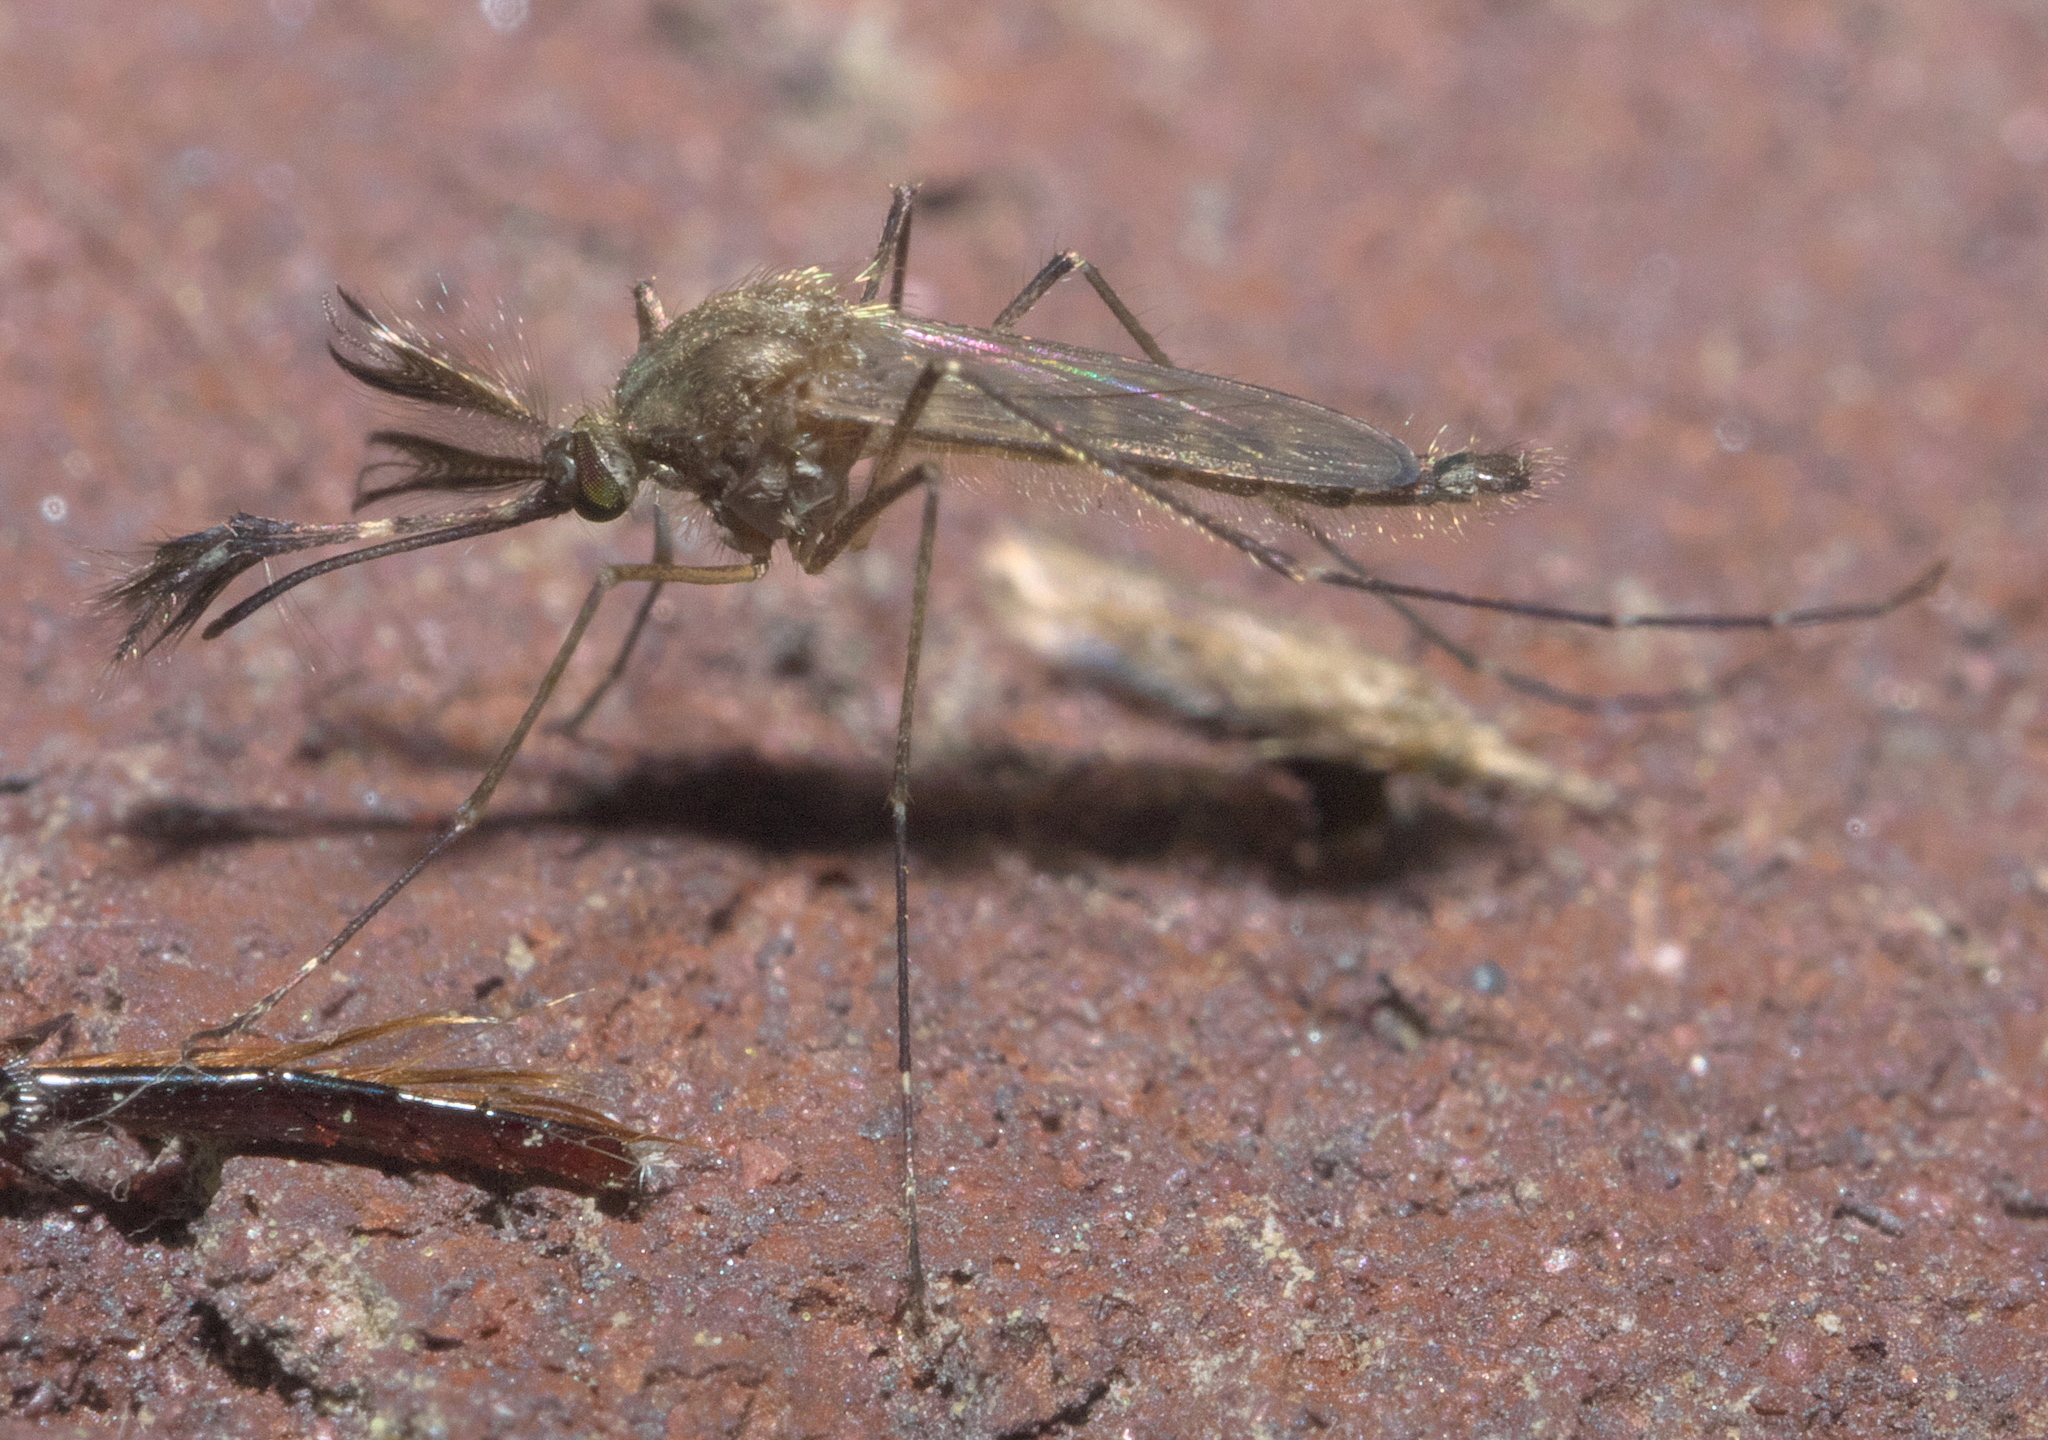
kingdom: Animalia
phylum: Arthropoda
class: Insecta
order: Diptera
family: Culicidae
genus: Aedes
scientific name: Aedes vexans
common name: Inland floodwater mosquito
